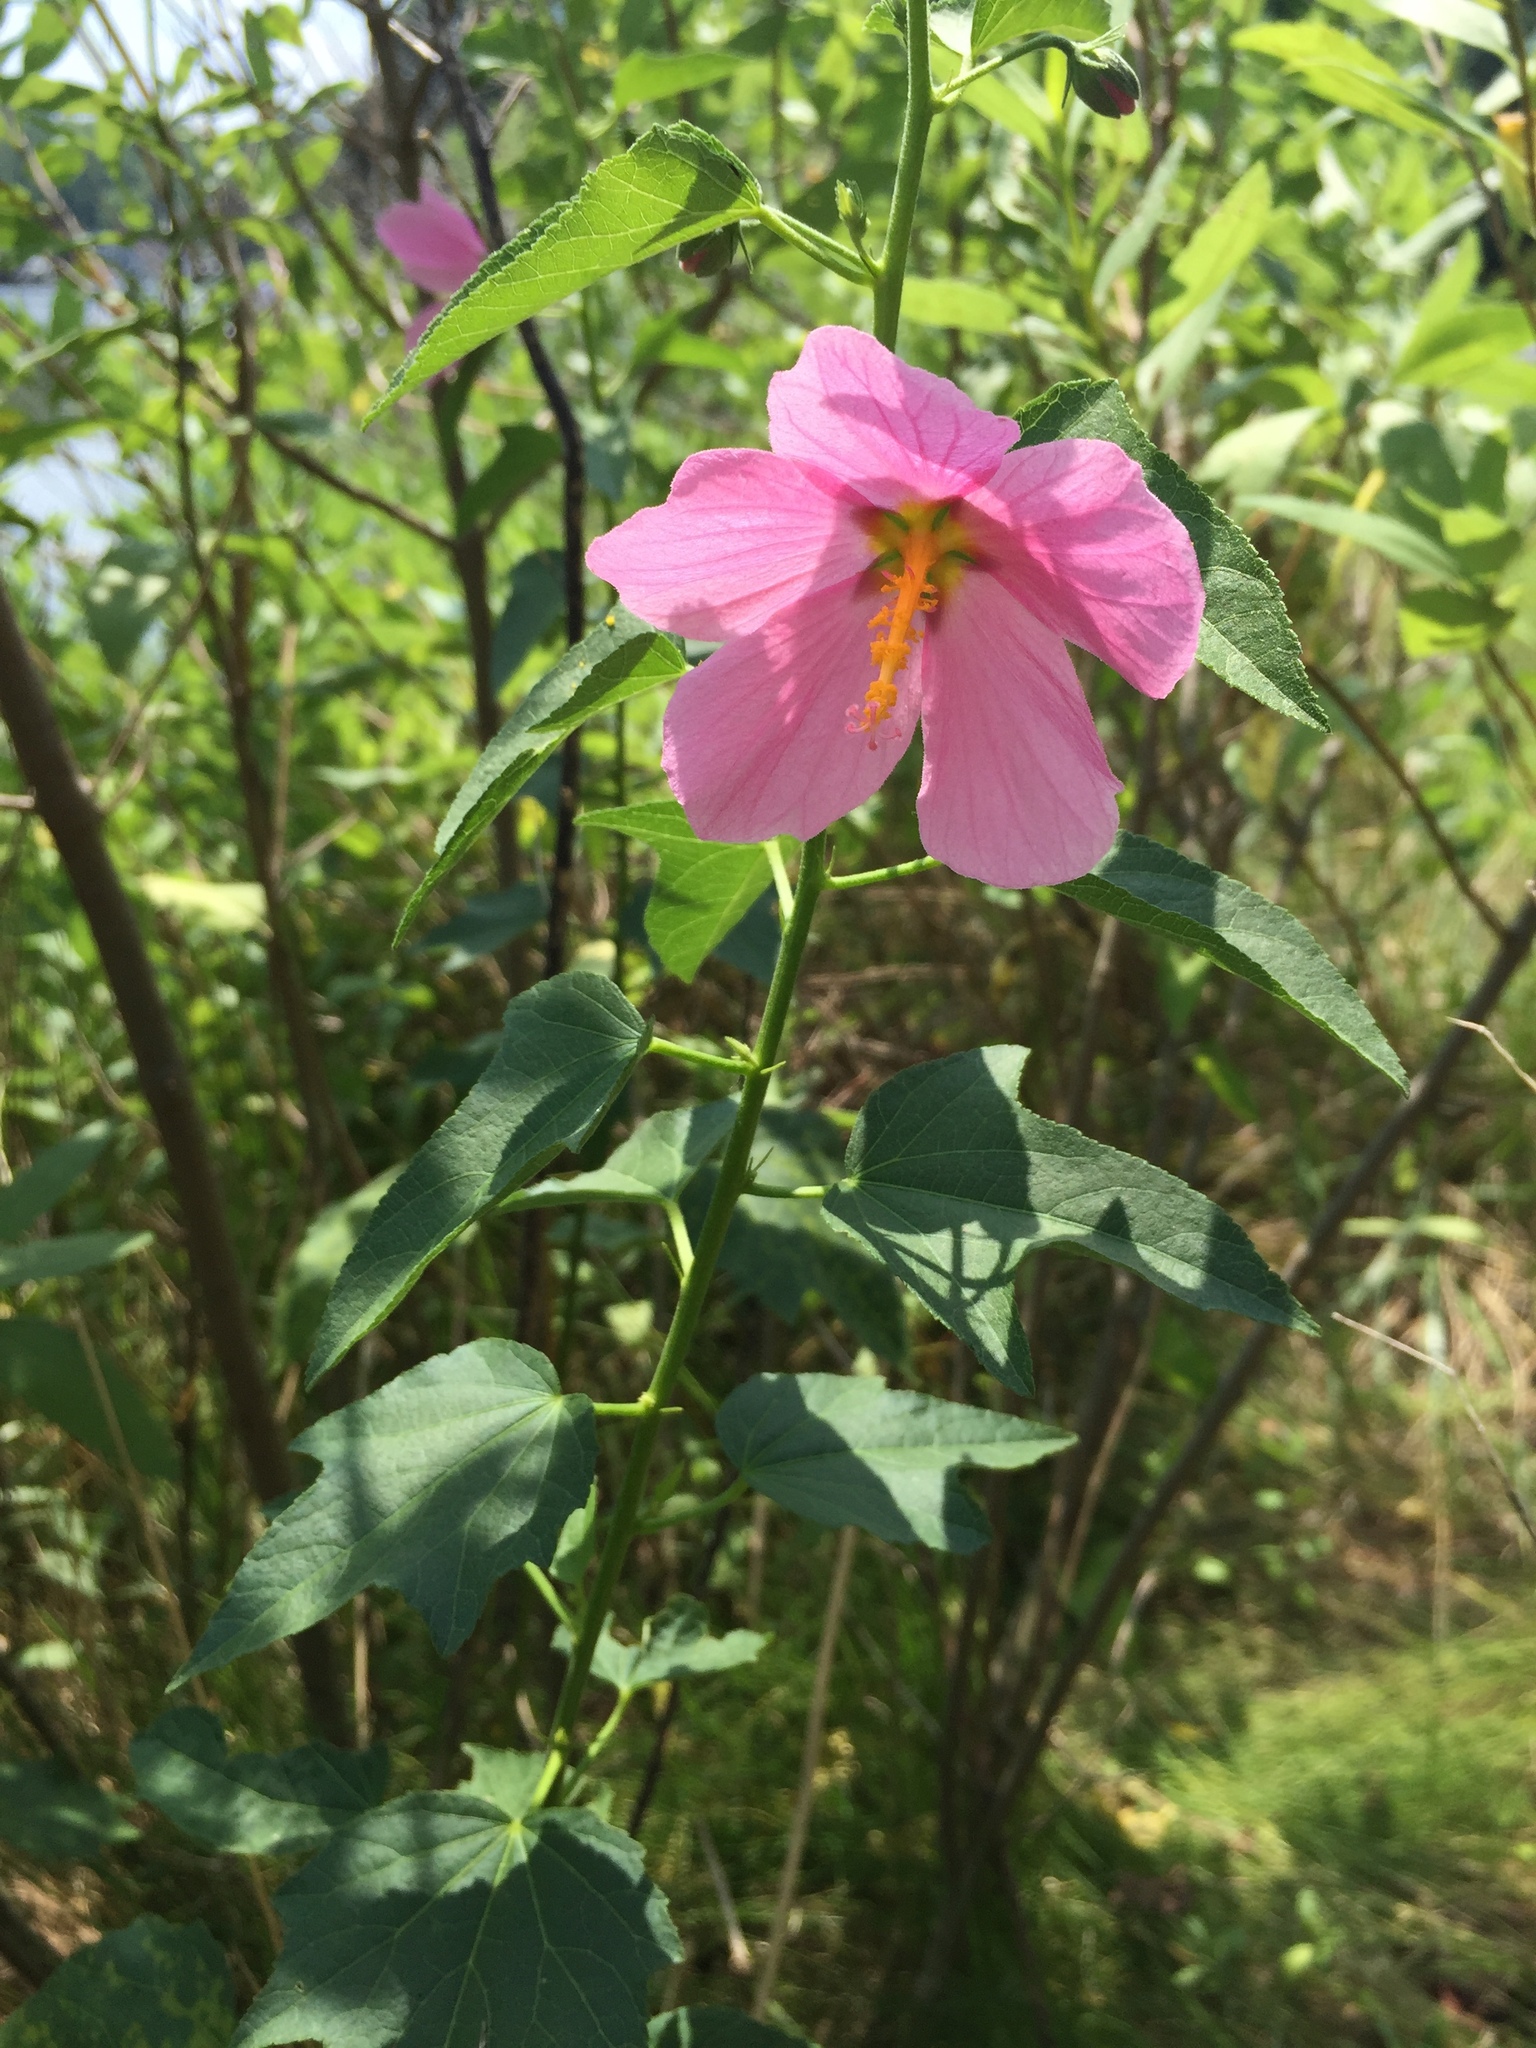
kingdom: Plantae
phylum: Tracheophyta
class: Magnoliopsida
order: Malvales
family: Malvaceae
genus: Kosteletzkya
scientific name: Kosteletzkya pentacarpos
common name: Virginia saltmarsh mallow
